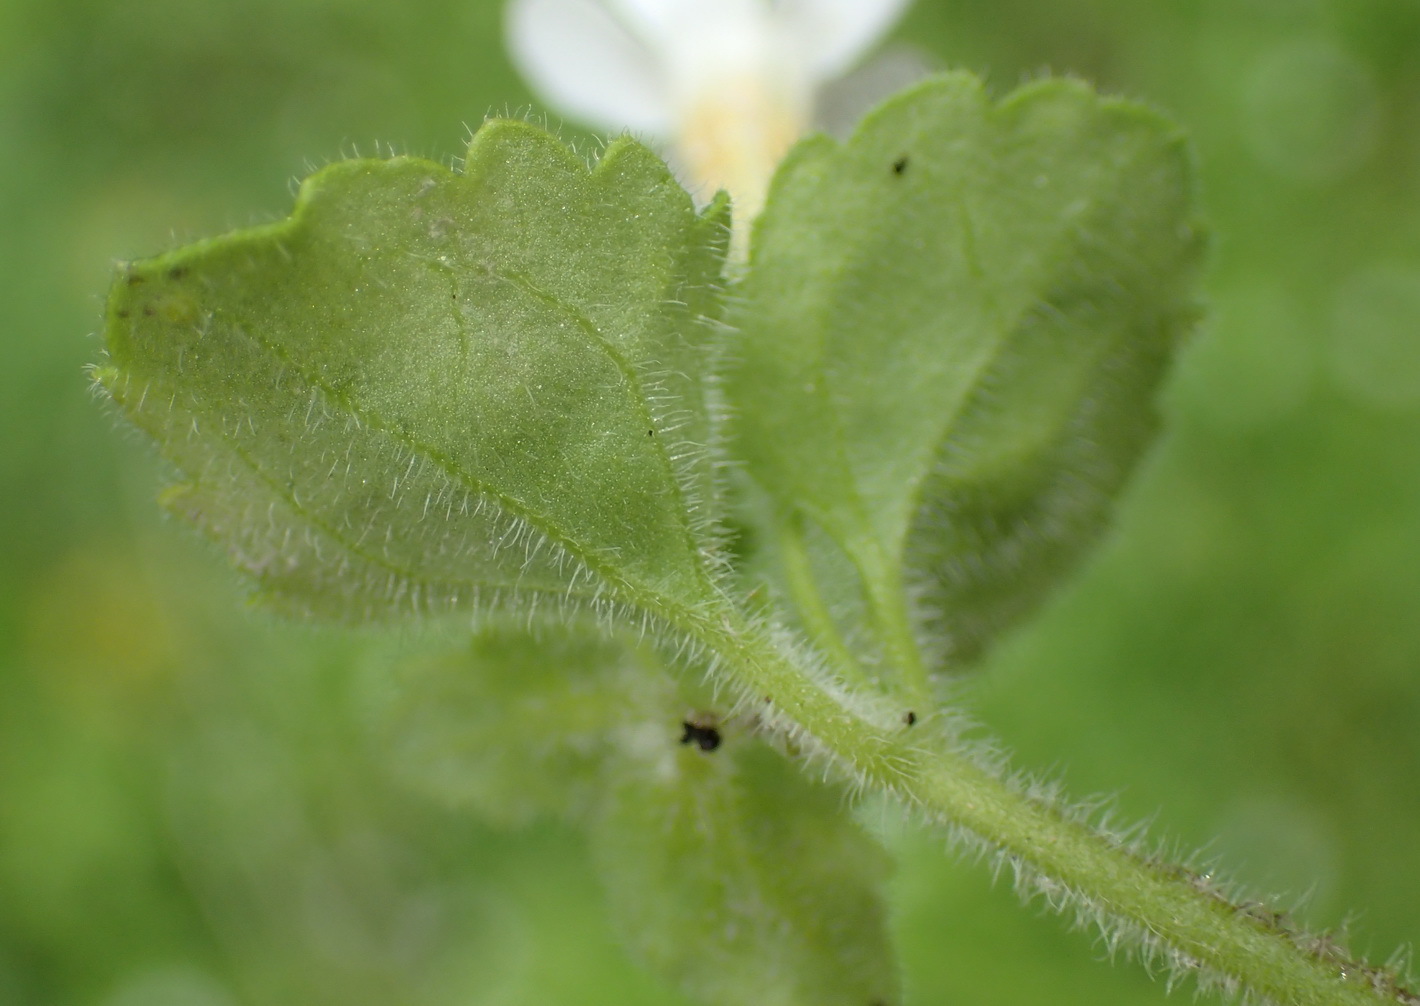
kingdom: Plantae
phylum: Tracheophyta
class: Magnoliopsida
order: Lamiales
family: Scrophulariaceae
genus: Chaenostoma
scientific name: Chaenostoma cordatum
